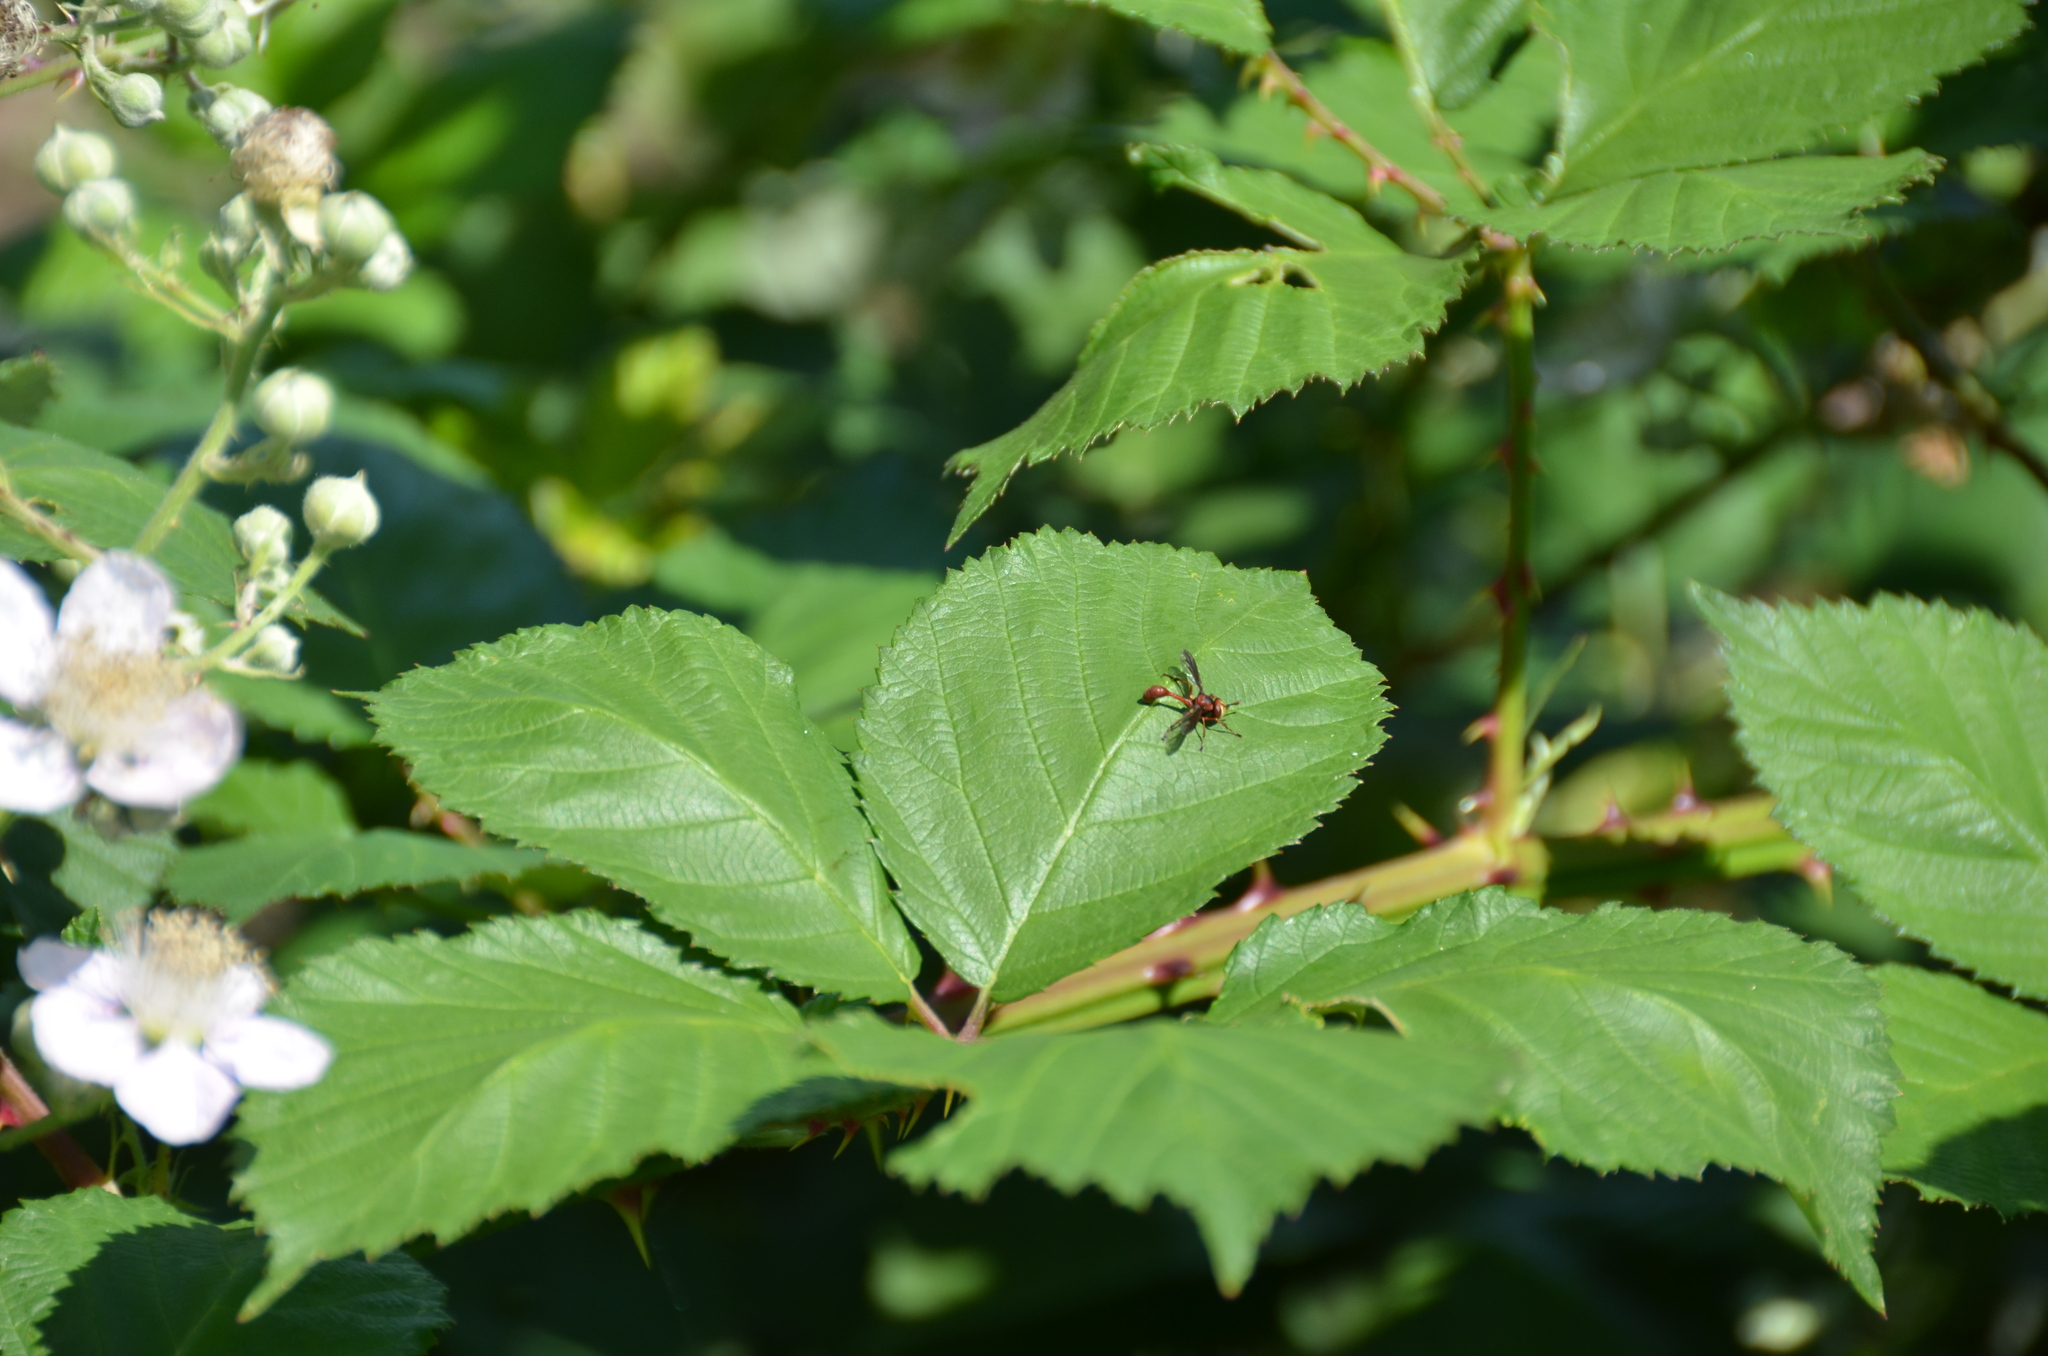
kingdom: Animalia
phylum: Arthropoda
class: Insecta
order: Diptera
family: Conopidae
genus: Physocephala
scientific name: Physocephala burgessi
